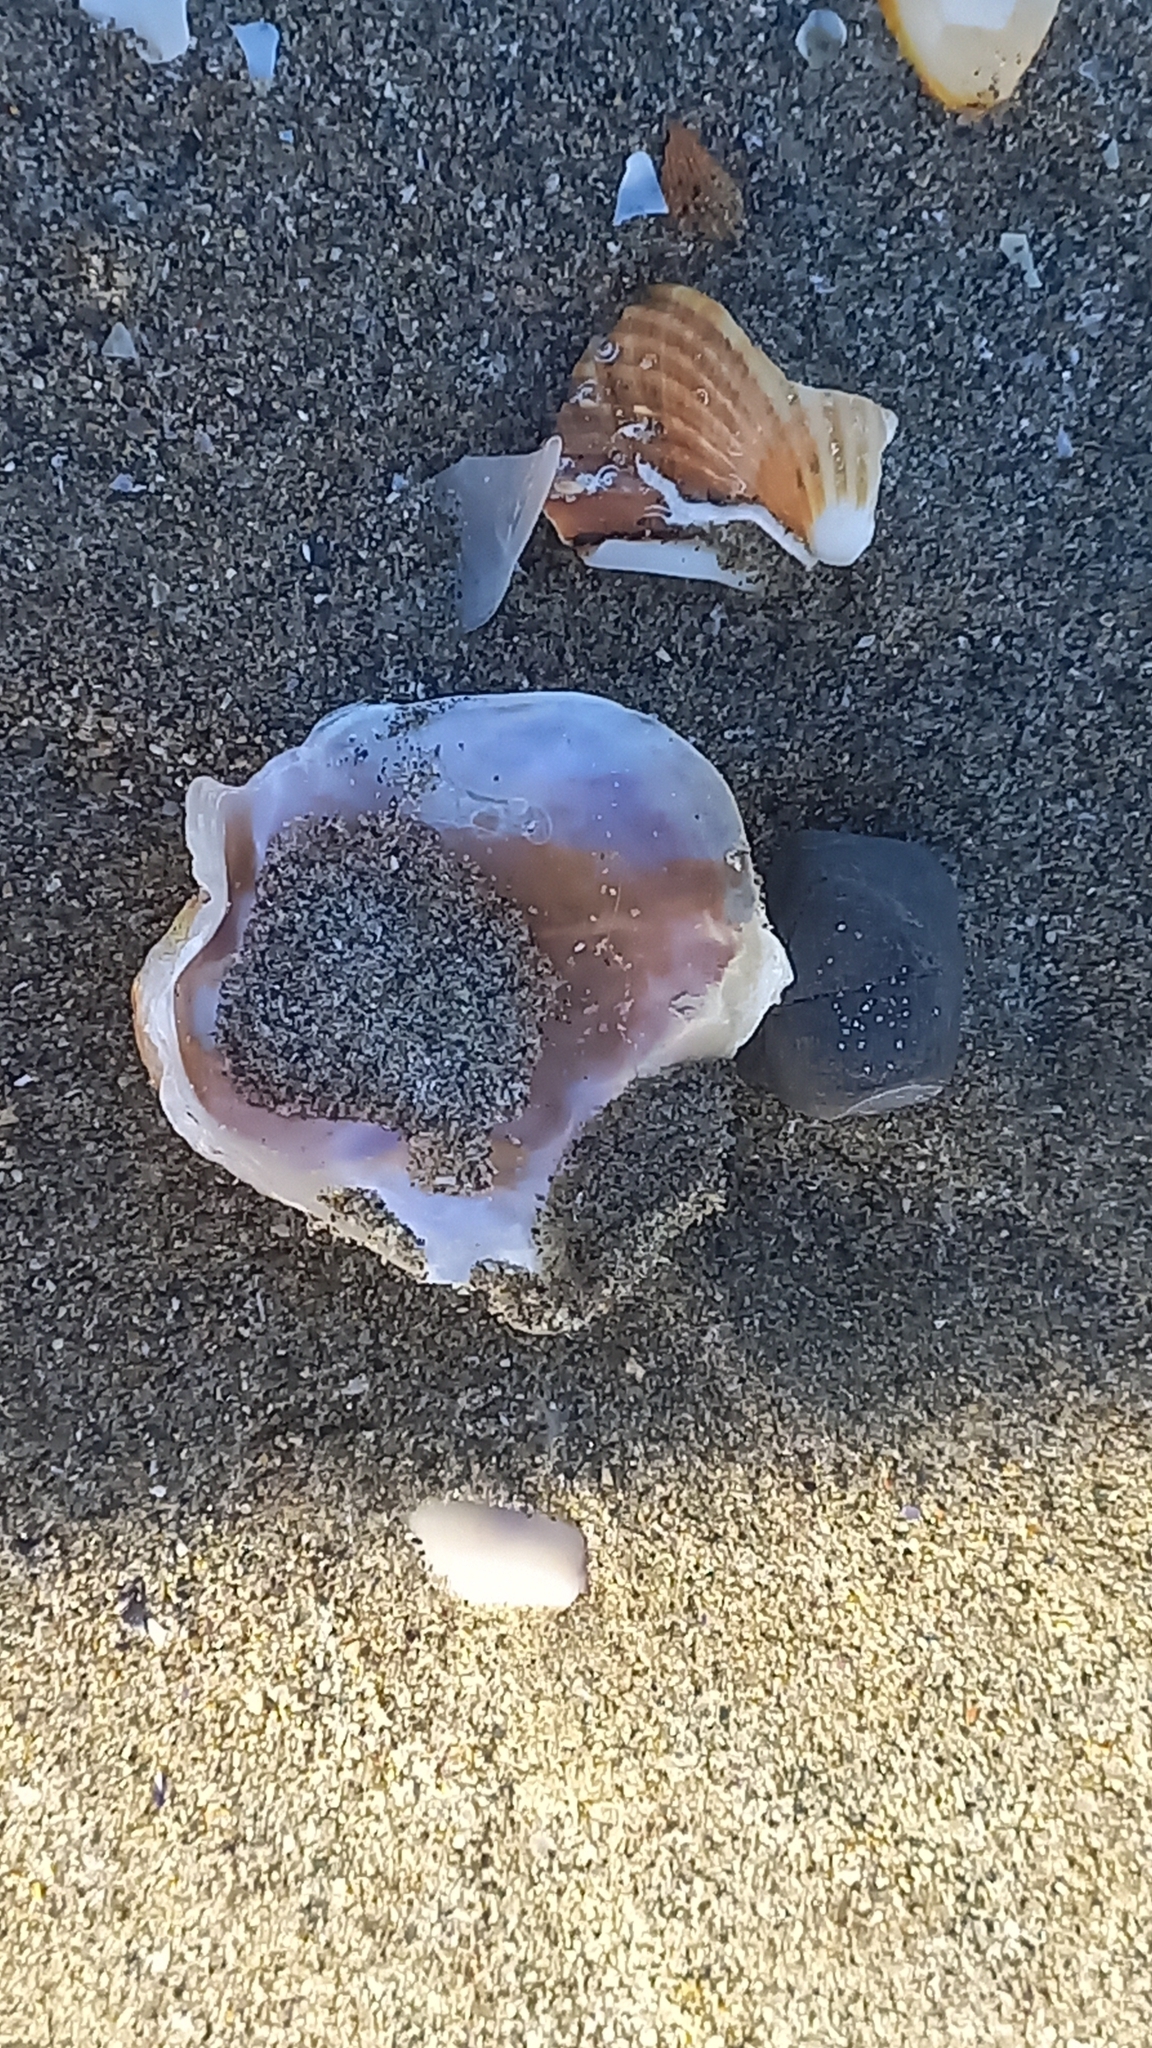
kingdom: Animalia
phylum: Mollusca
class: Bivalvia
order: Pectinida
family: Anomiidae
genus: Anomia
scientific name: Anomia ephippium
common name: Saddle oyster
